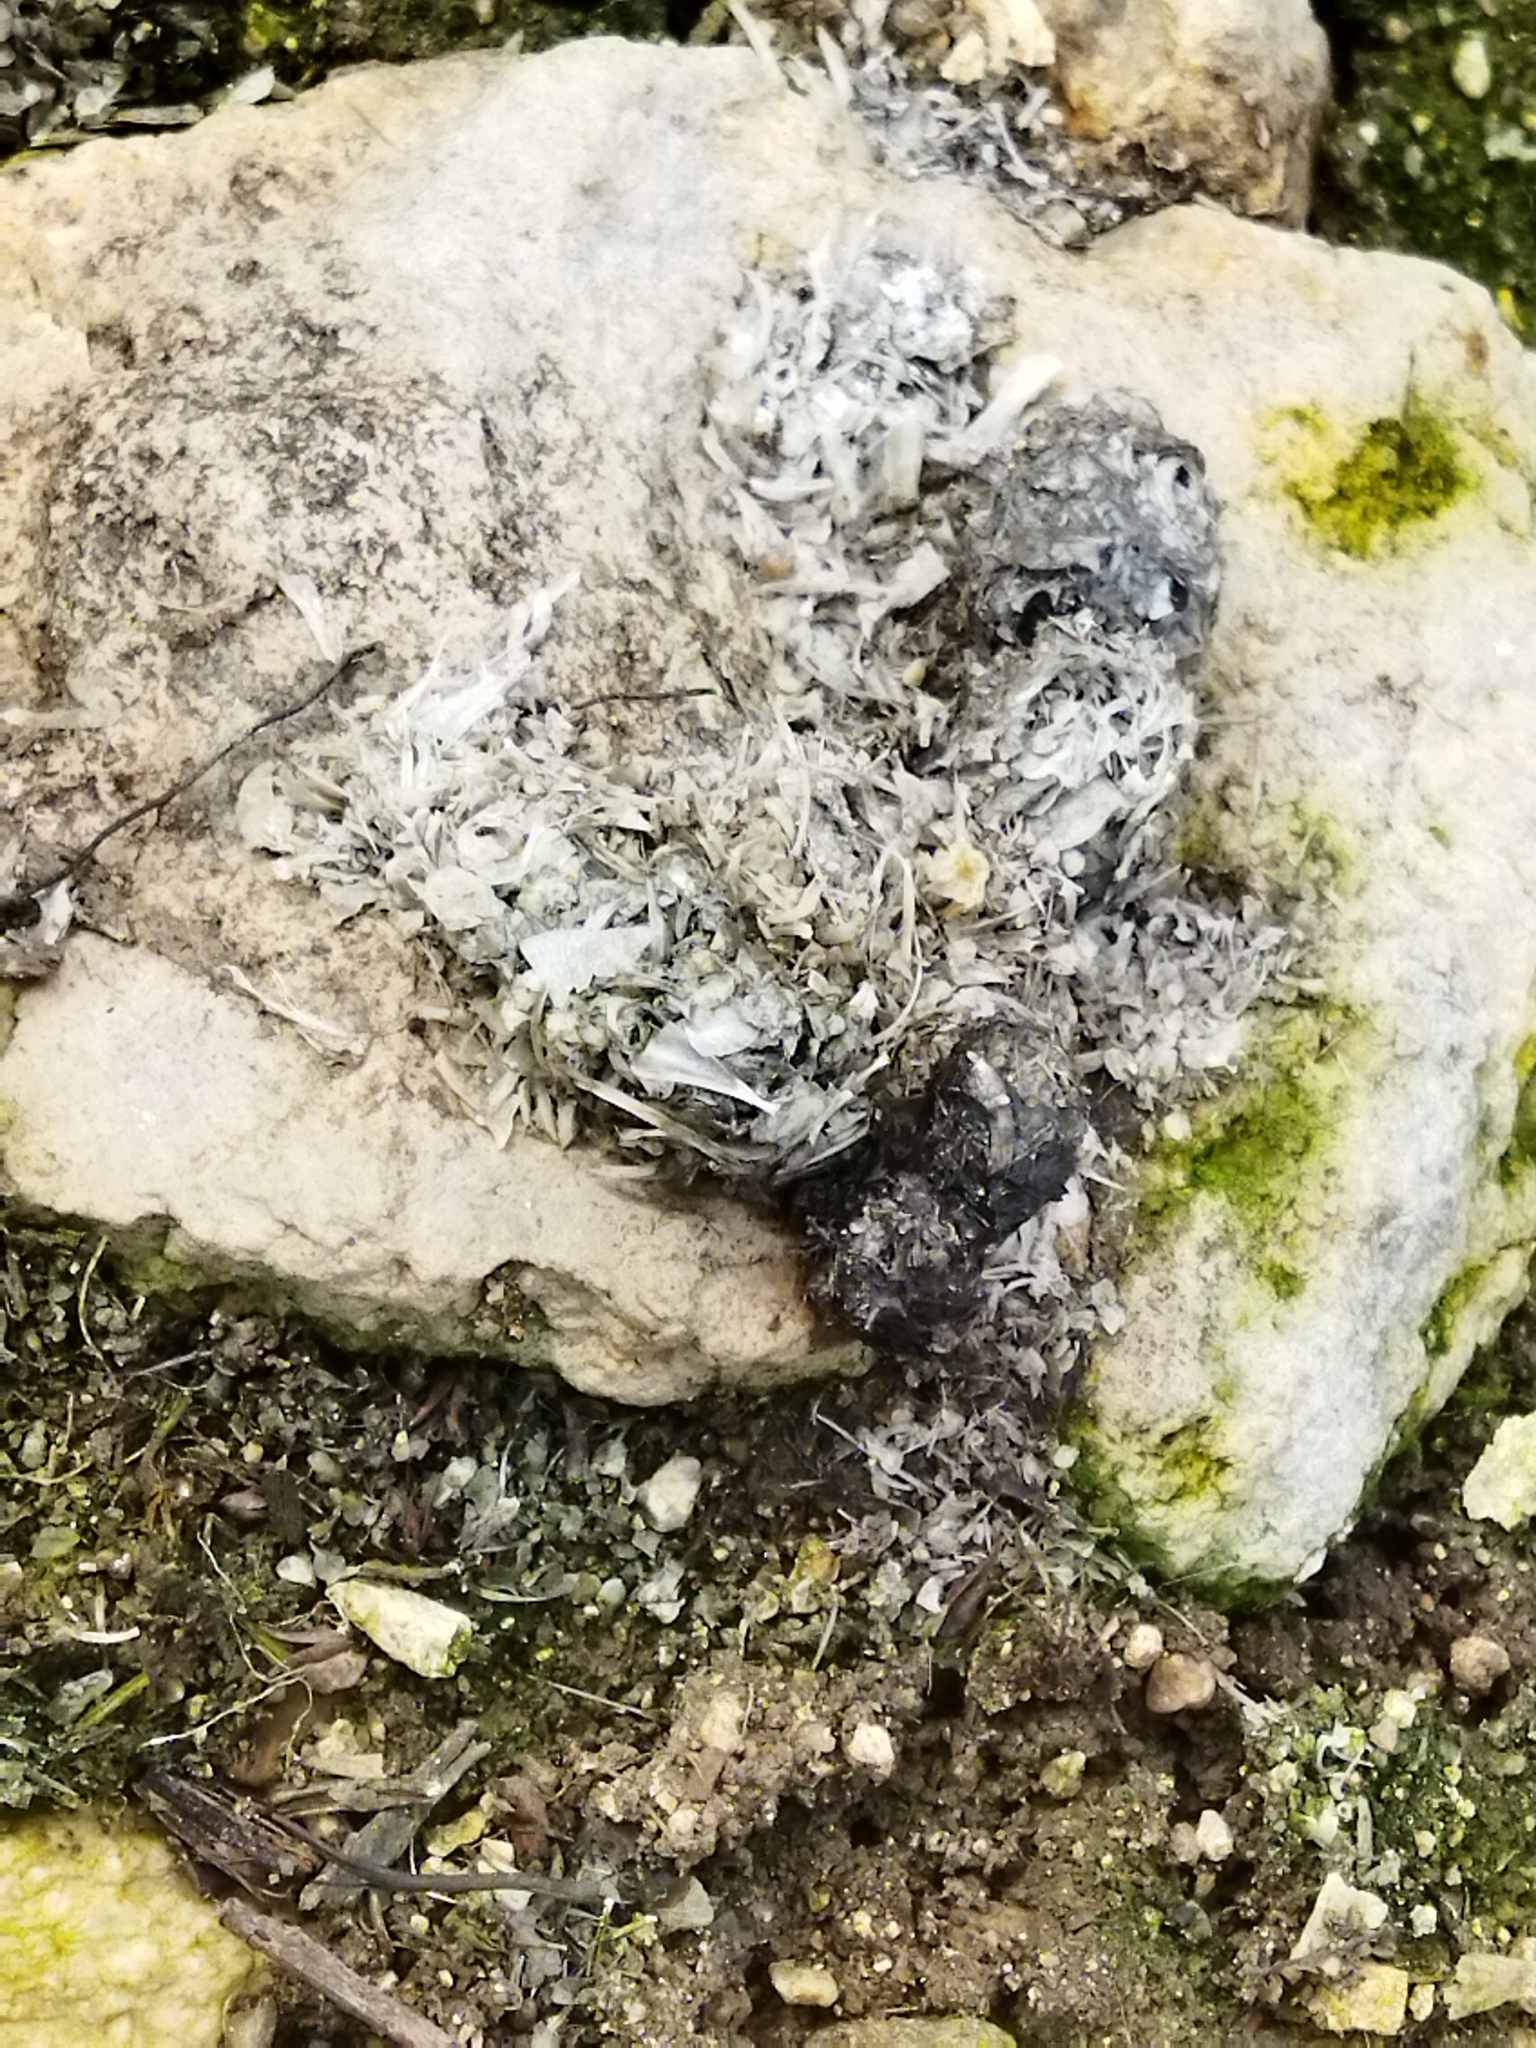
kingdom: Animalia
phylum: Chordata
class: Mammalia
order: Carnivora
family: Mustelidae
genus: Lutra
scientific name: Lutra lutra
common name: European otter
